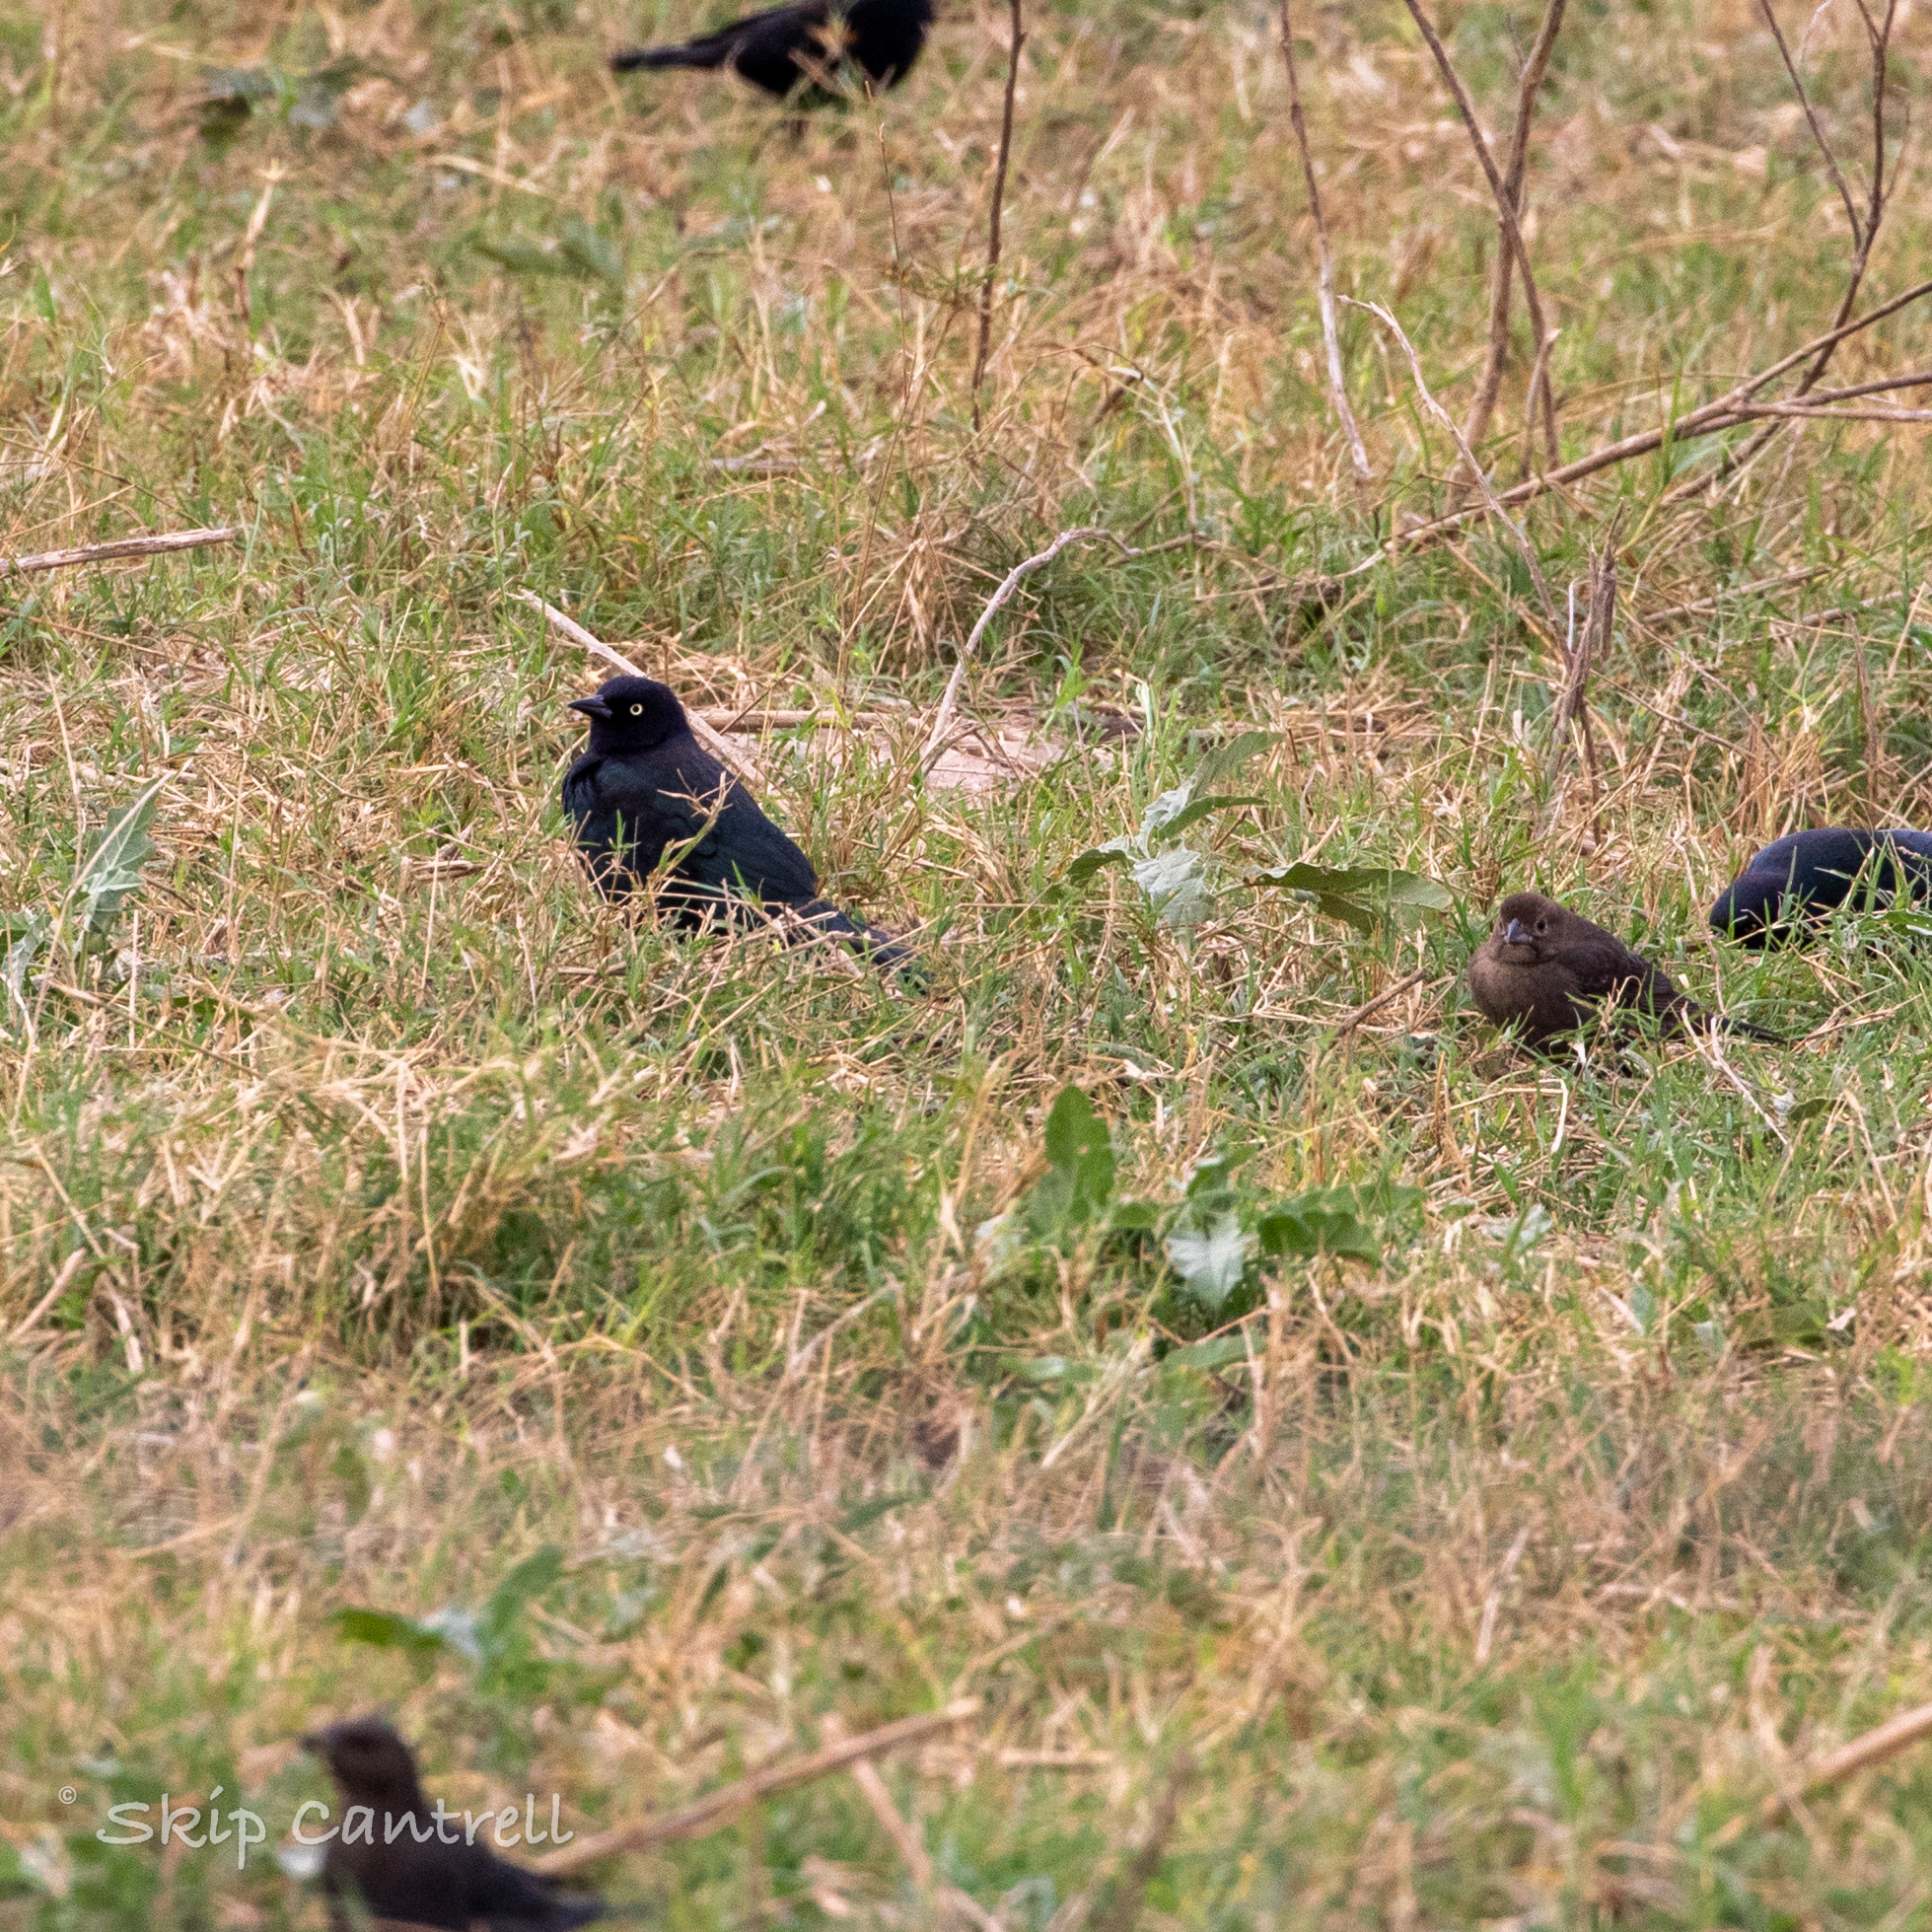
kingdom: Animalia
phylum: Chordata
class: Aves
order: Passeriformes
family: Icteridae
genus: Euphagus
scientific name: Euphagus cyanocephalus
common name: Brewer's blackbird
